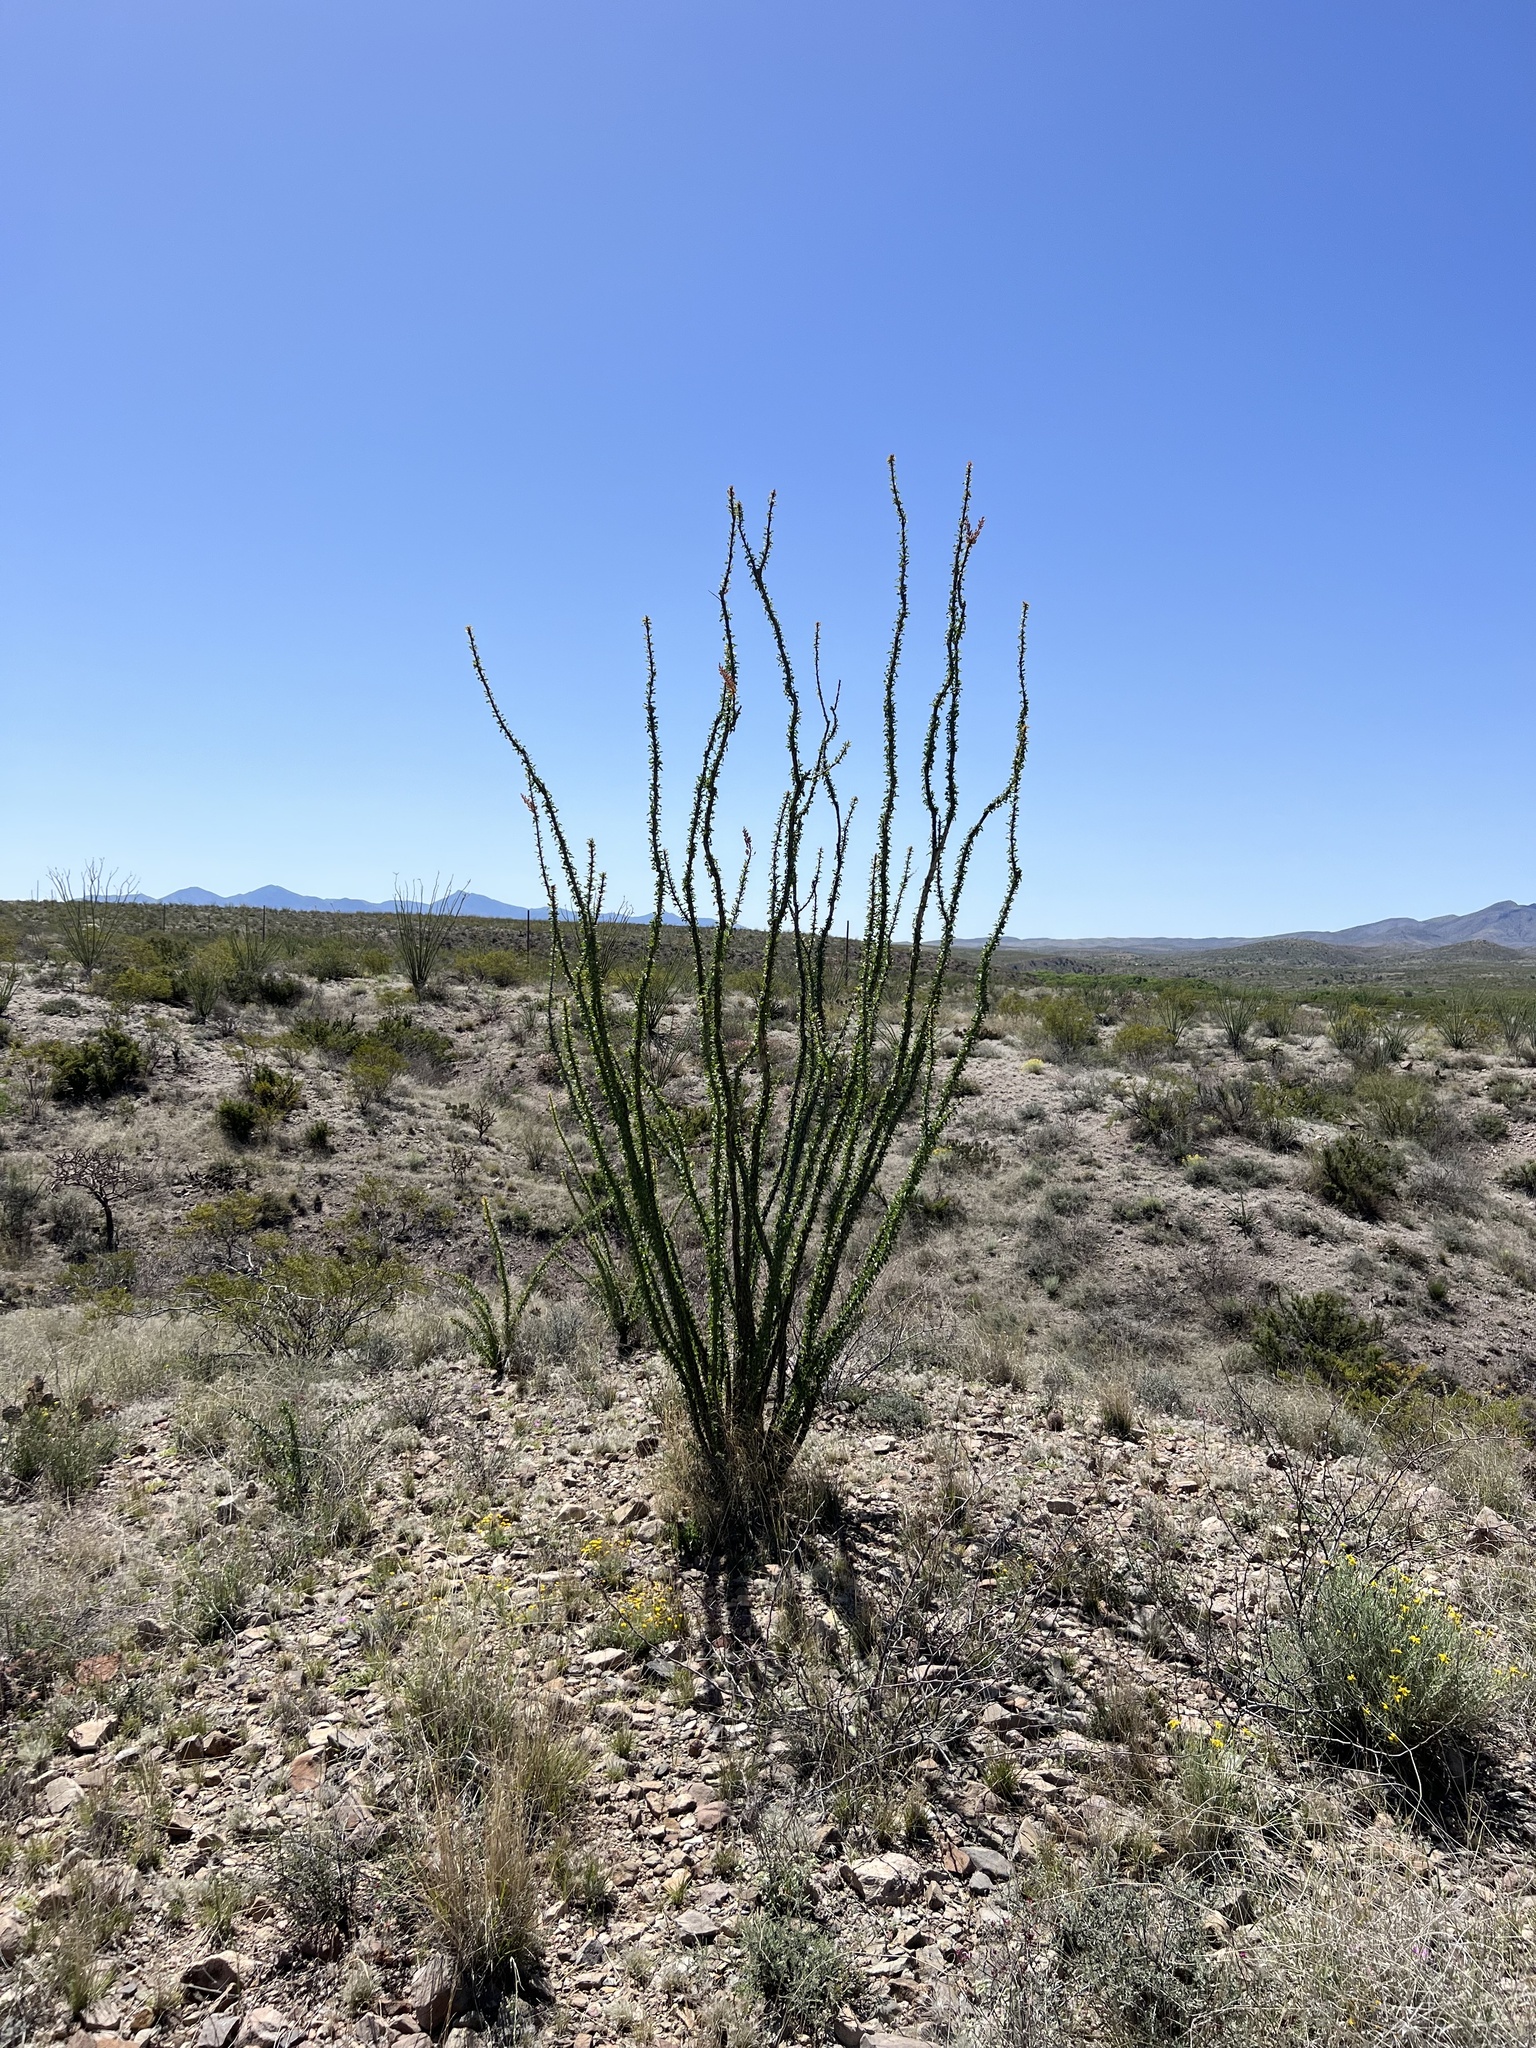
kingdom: Plantae
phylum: Tracheophyta
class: Magnoliopsida
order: Ericales
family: Fouquieriaceae
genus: Fouquieria
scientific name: Fouquieria splendens
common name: Vine-cactus
